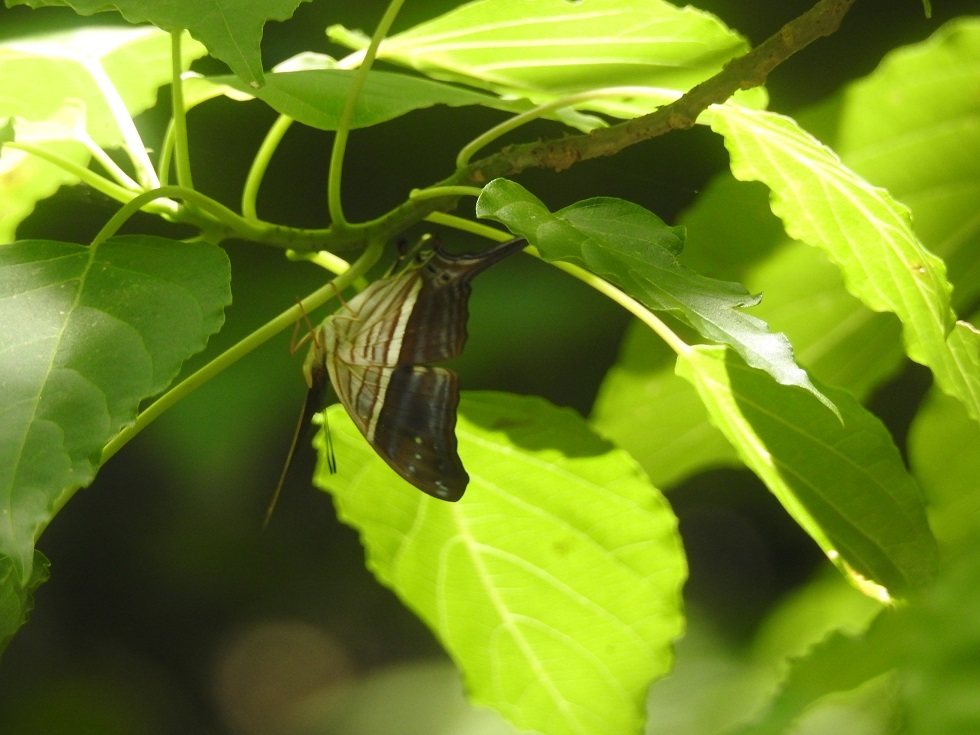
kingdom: Animalia
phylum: Arthropoda
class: Insecta
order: Lepidoptera
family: Nymphalidae
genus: Marpesia
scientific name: Marpesia chiron
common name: Many-banded daggerwing
